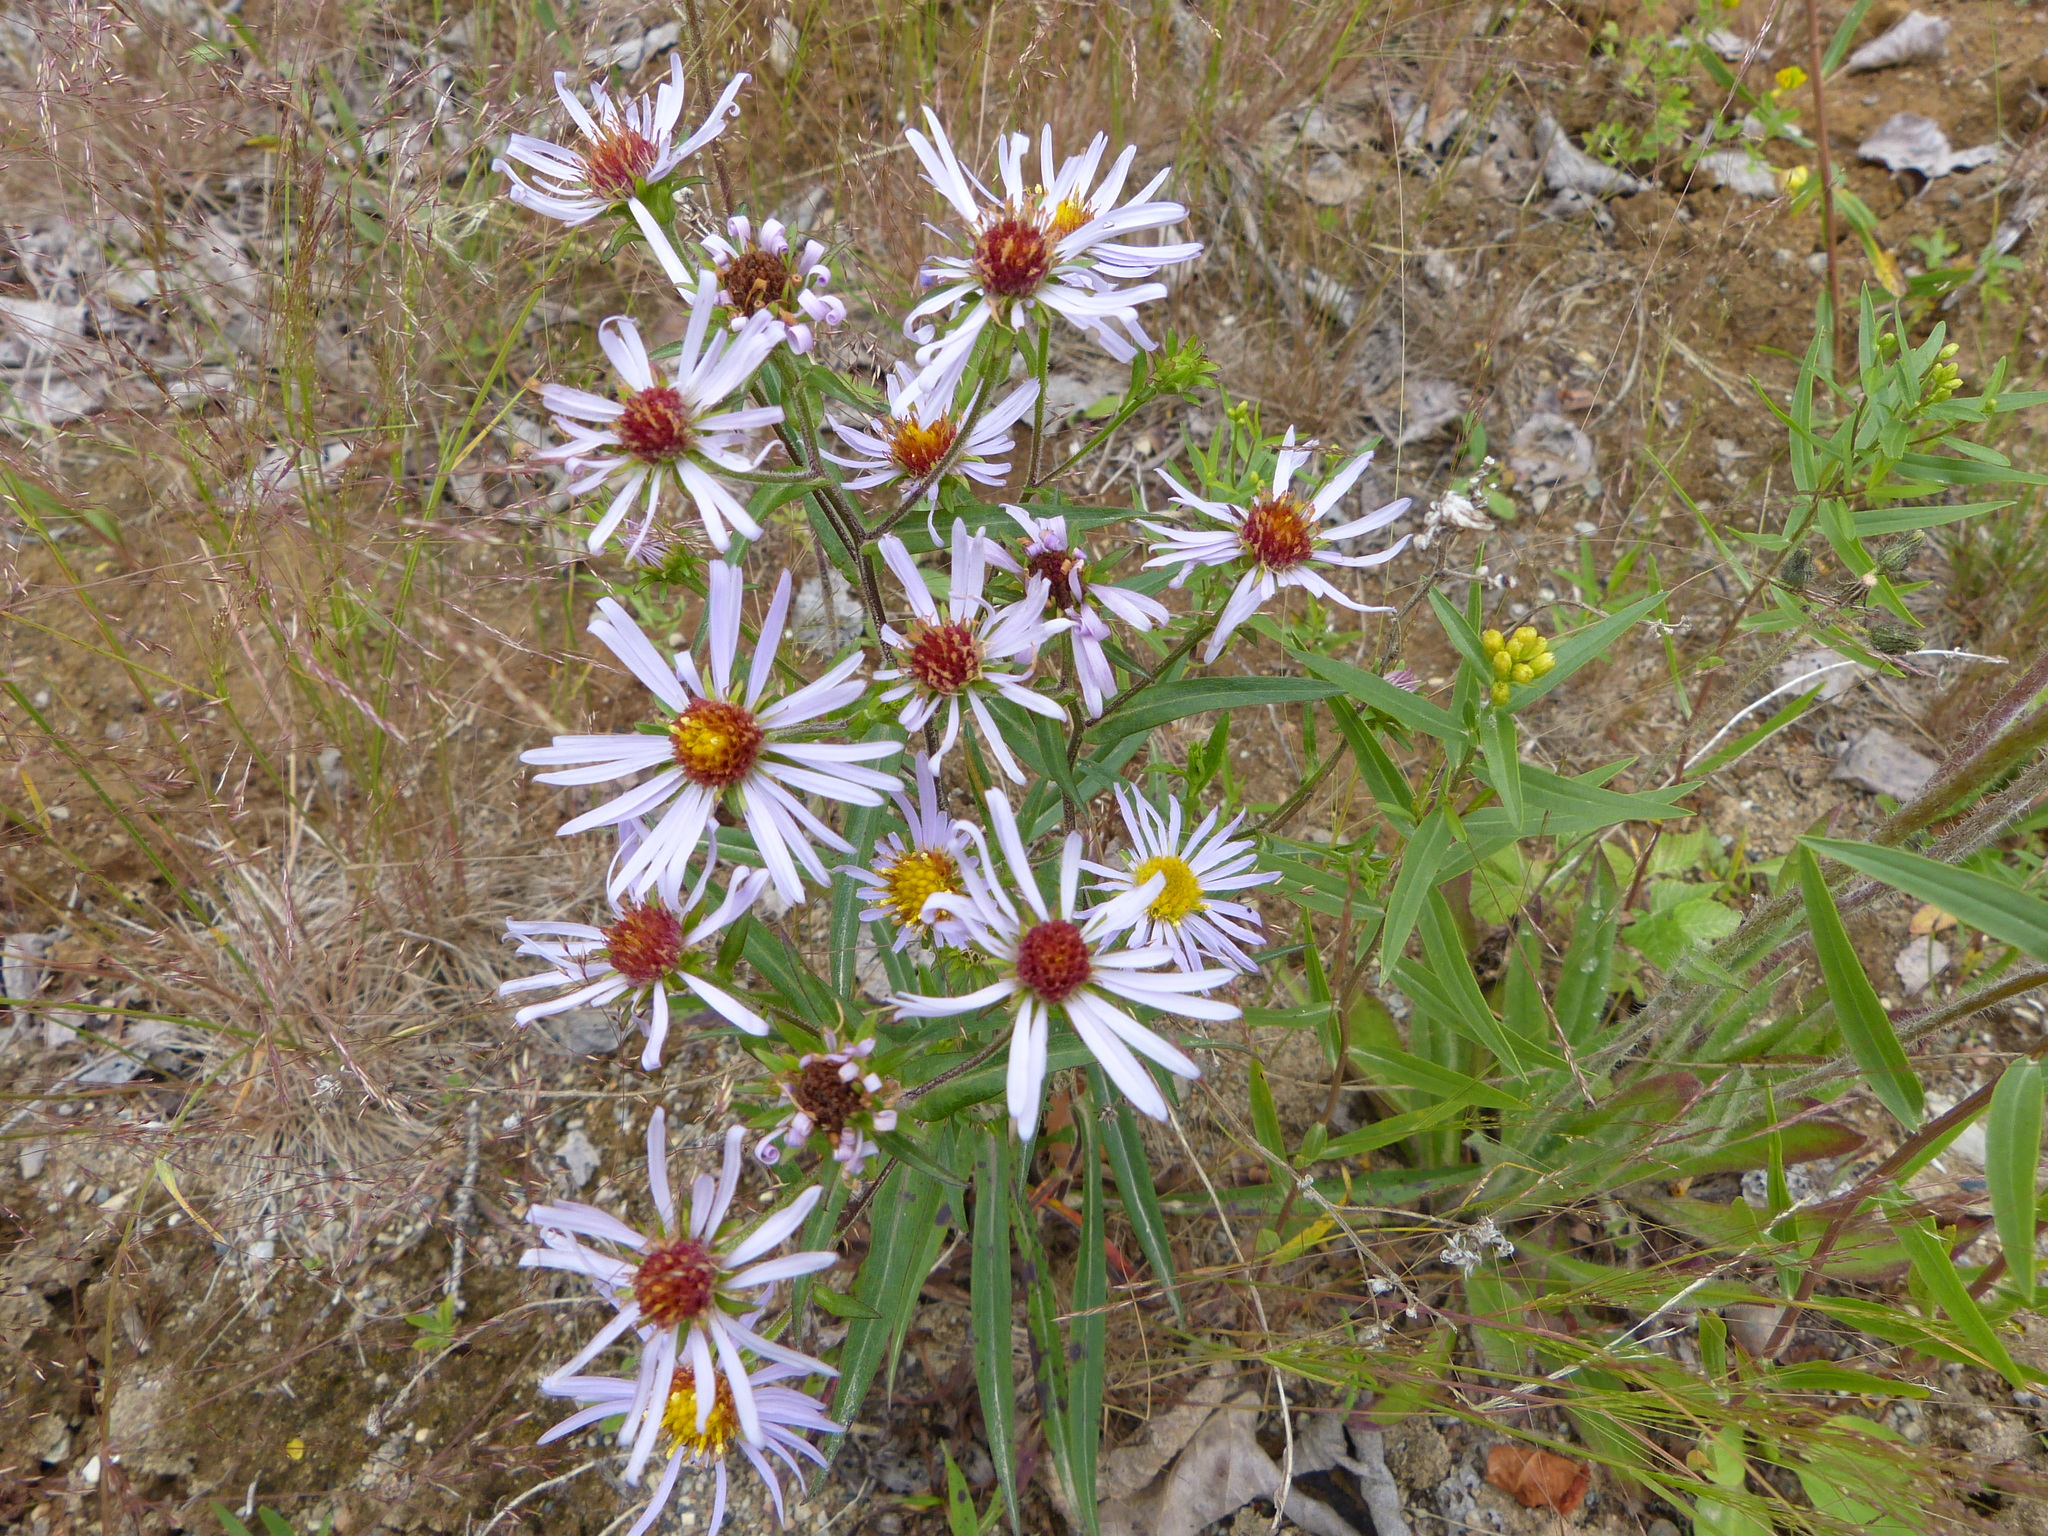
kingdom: Plantae
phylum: Tracheophyta
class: Magnoliopsida
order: Asterales
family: Asteraceae
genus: Symphyotrichum
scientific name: Symphyotrichum novi-belgii
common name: Michaelmas daisy
